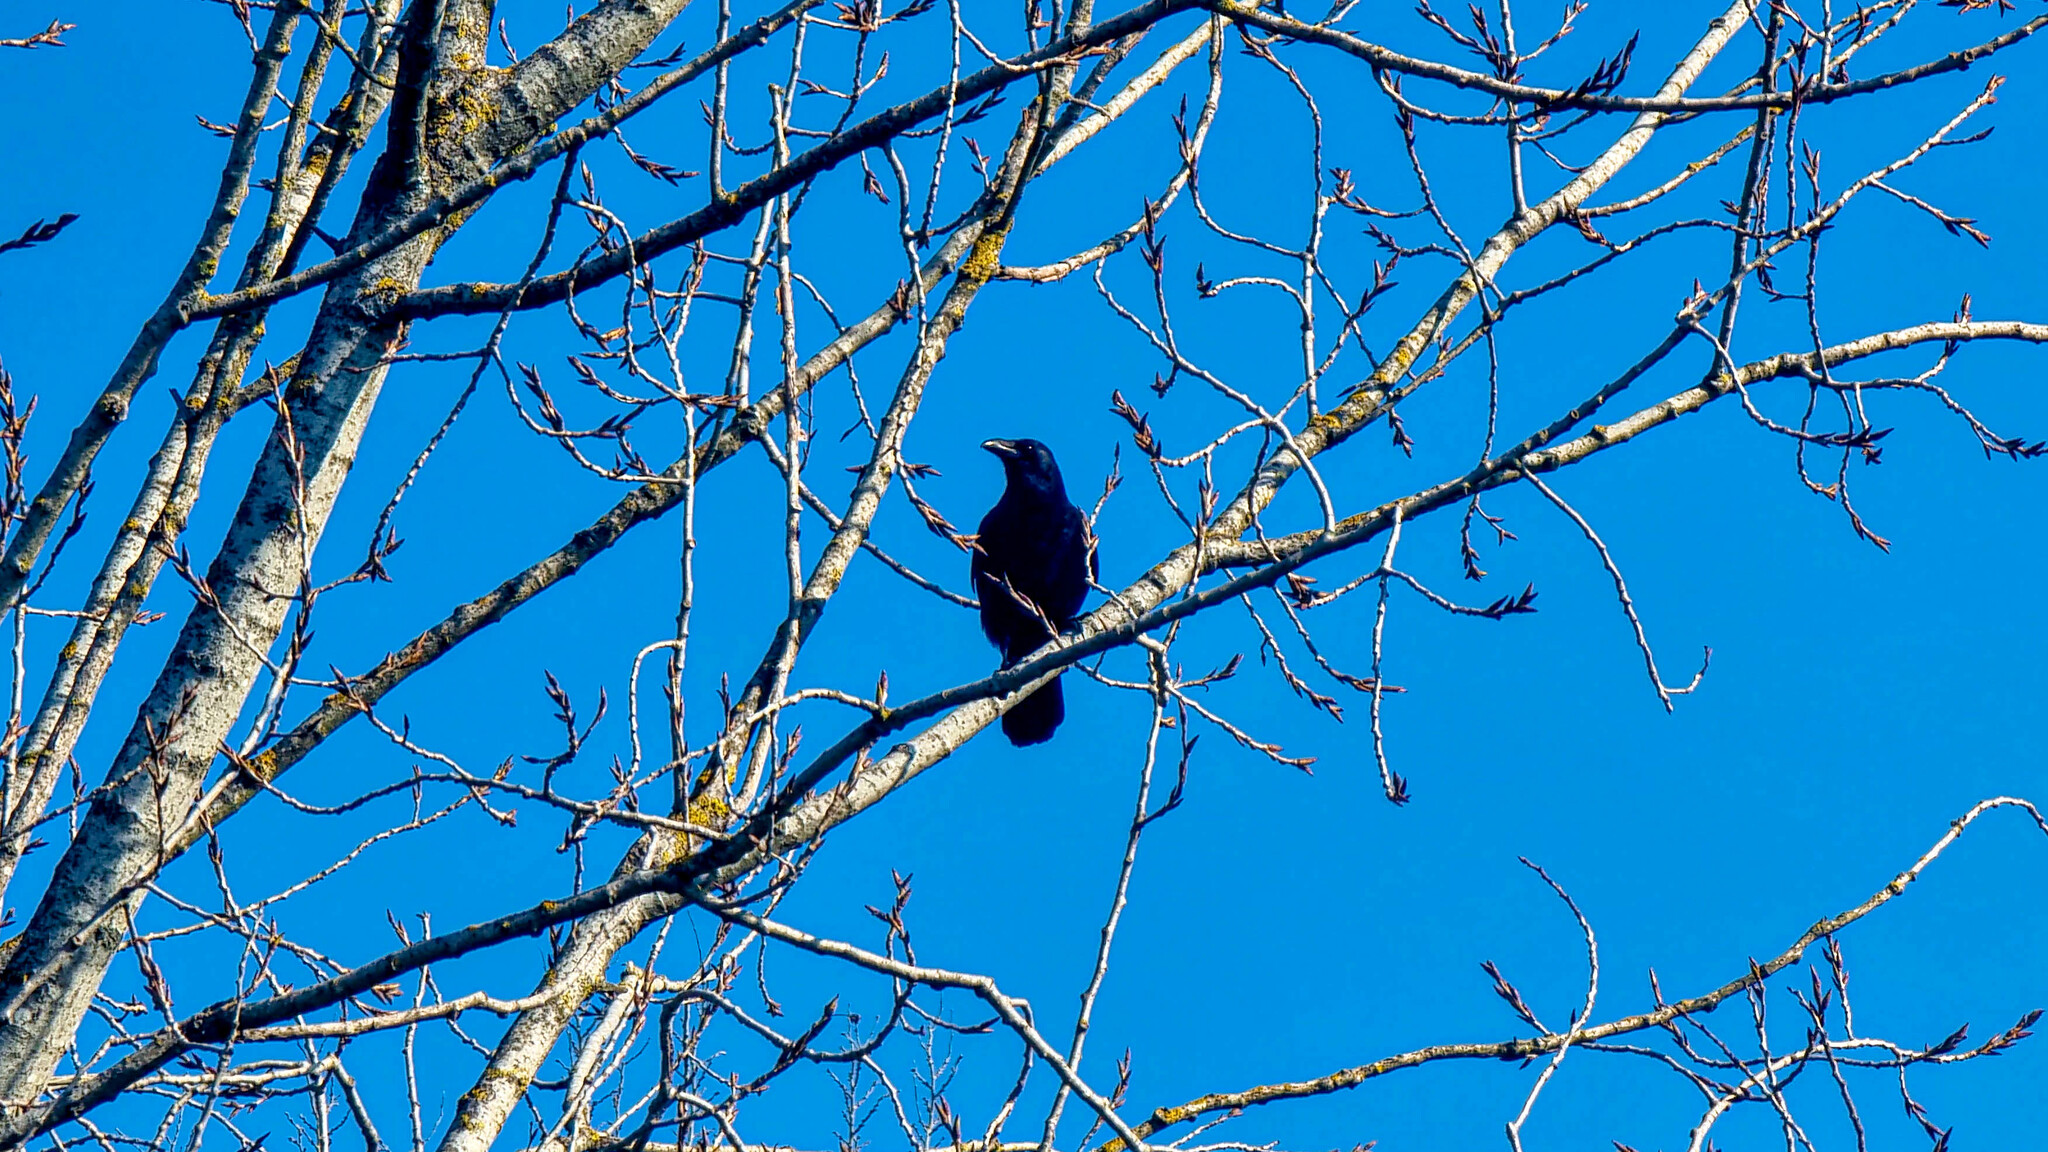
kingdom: Animalia
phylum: Chordata
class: Aves
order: Passeriformes
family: Corvidae
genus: Corvus
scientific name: Corvus corone
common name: Carrion crow
